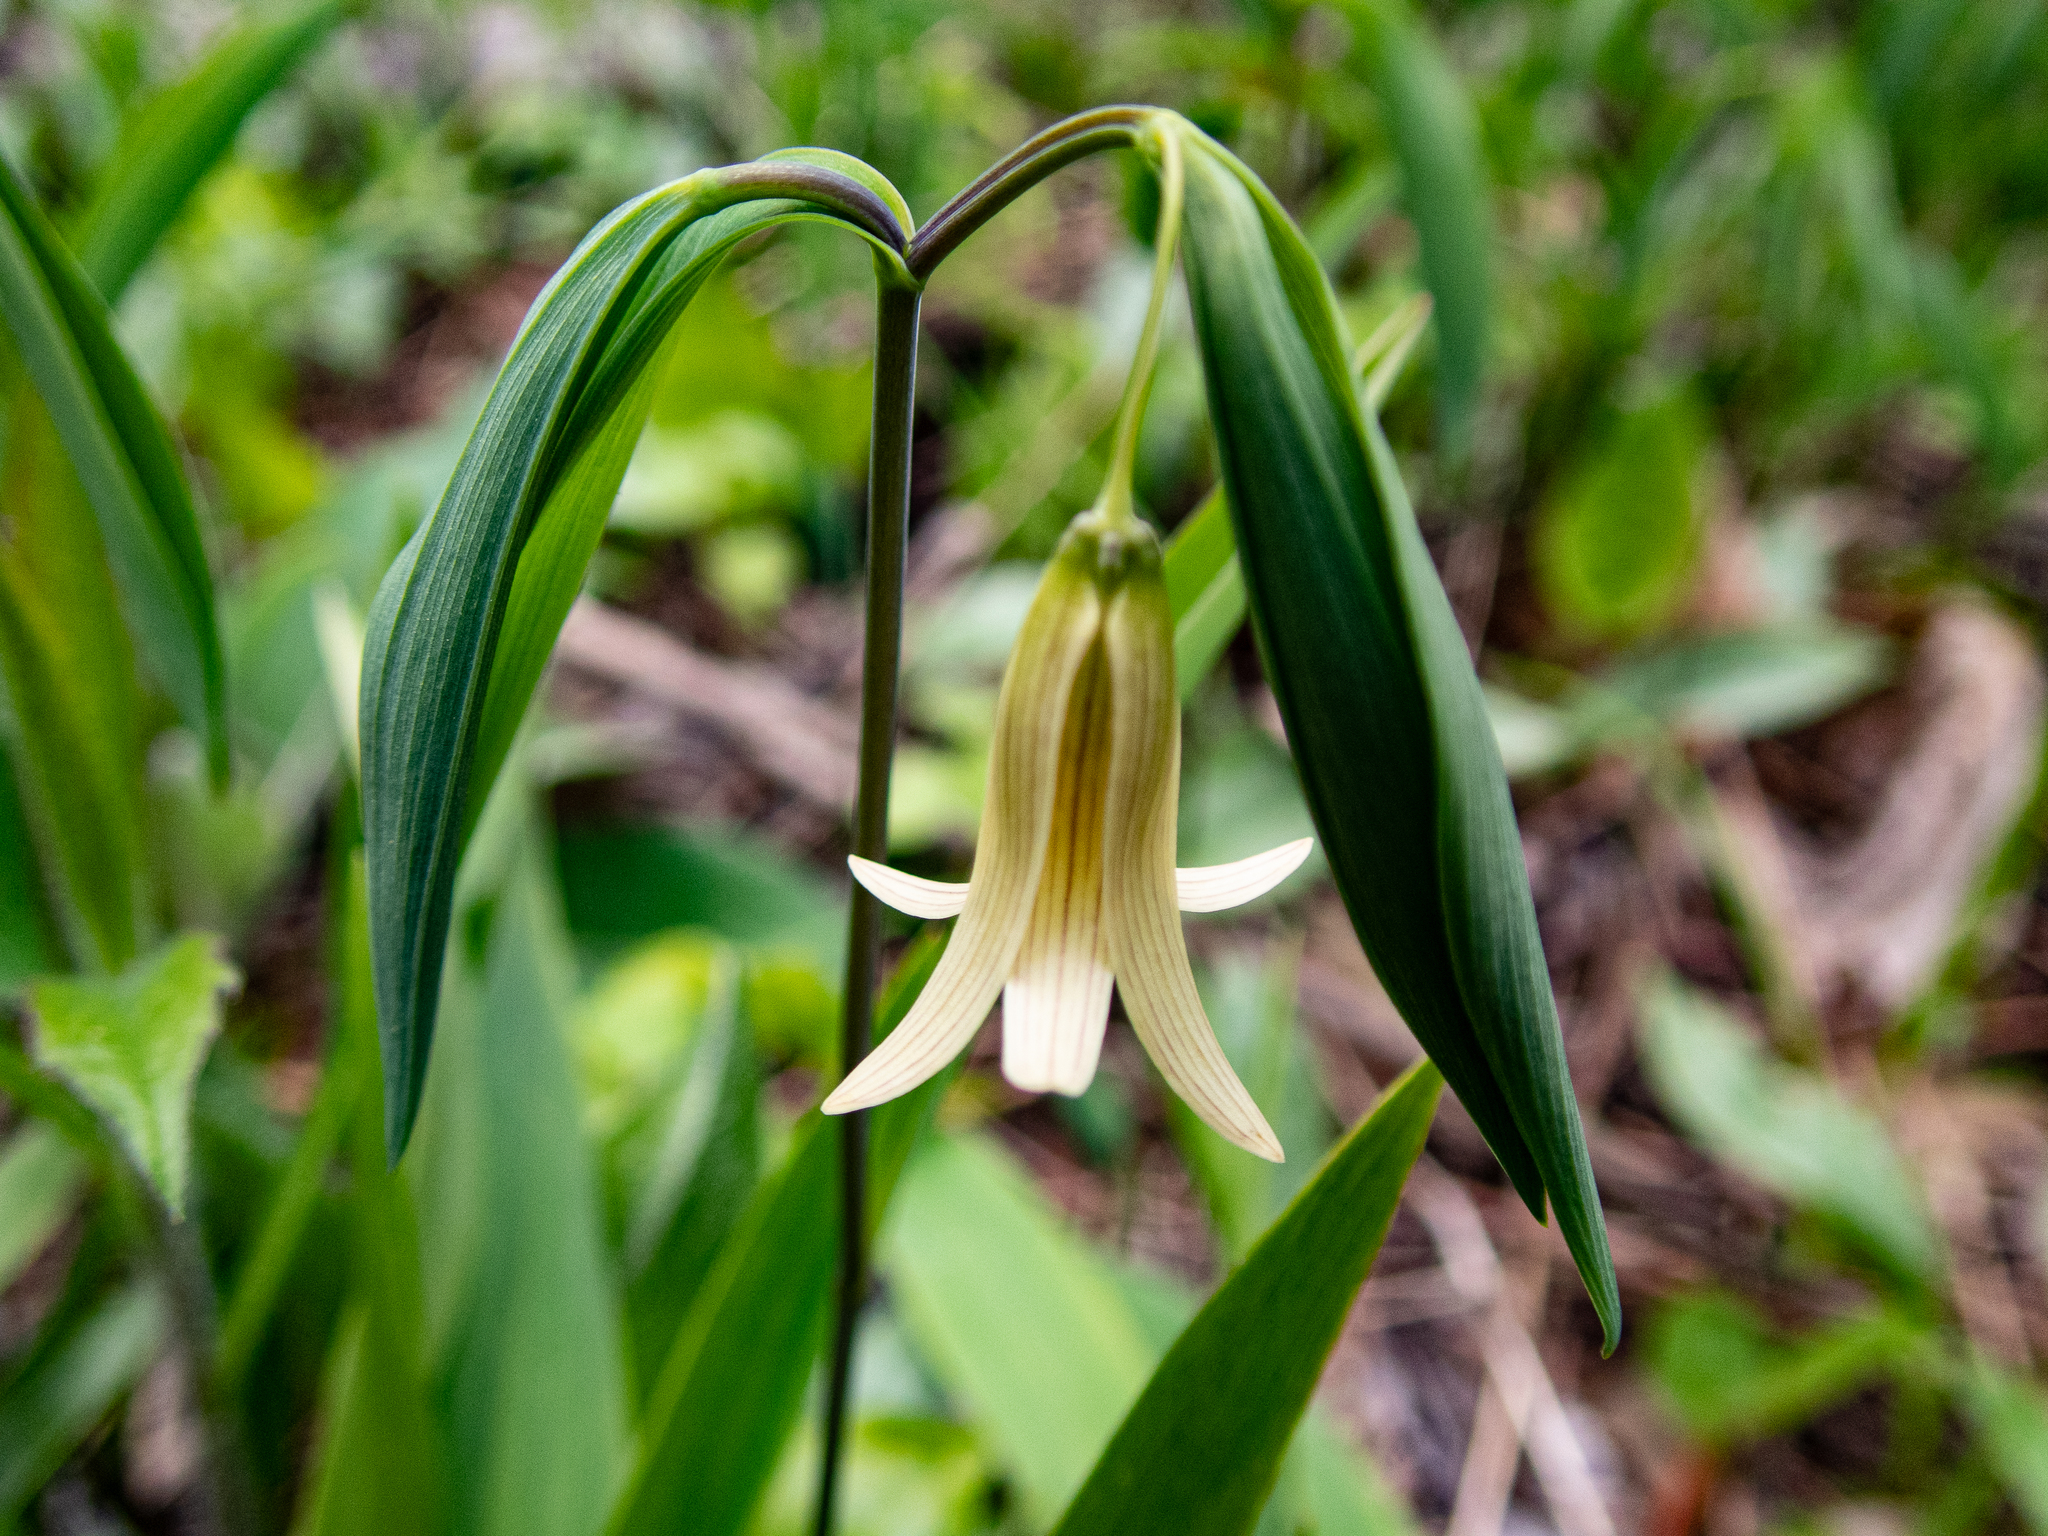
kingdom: Plantae
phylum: Tracheophyta
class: Liliopsida
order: Liliales
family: Colchicaceae
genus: Uvularia
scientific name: Uvularia sessilifolia
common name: Straw-lily
